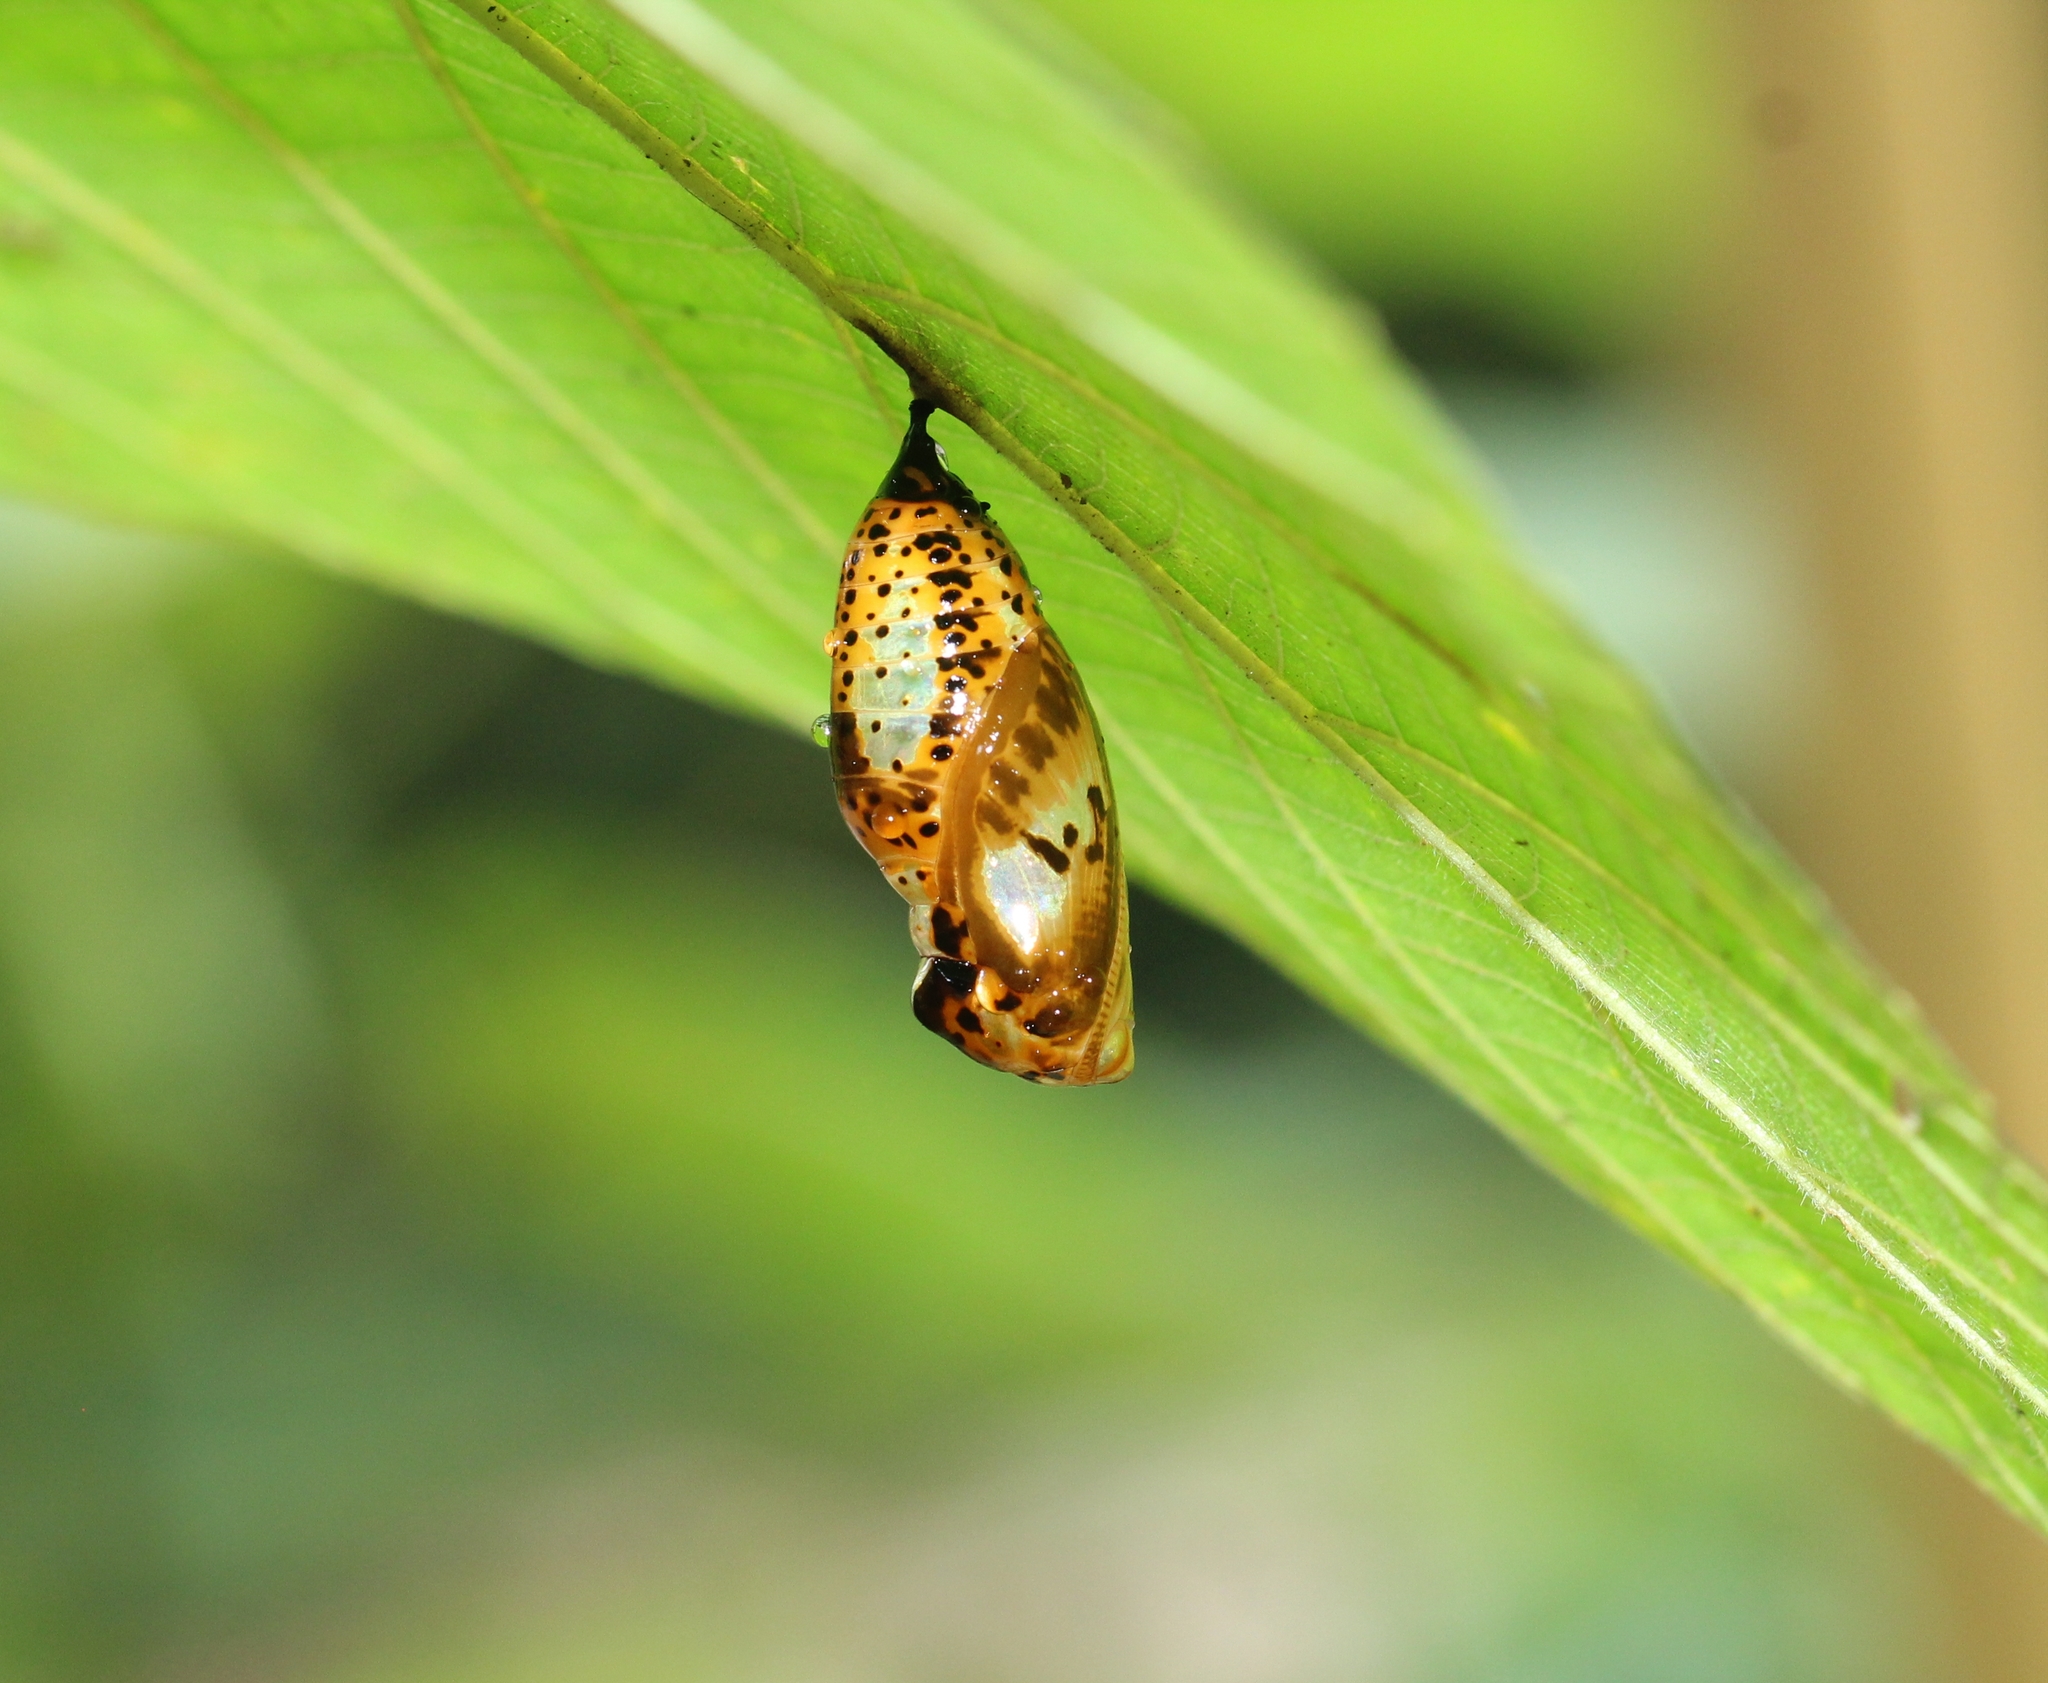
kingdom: Animalia
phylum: Arthropoda
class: Insecta
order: Lepidoptera
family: Nymphalidae
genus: Idea
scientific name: Idea malabarica
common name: Malabar tree-nymph
